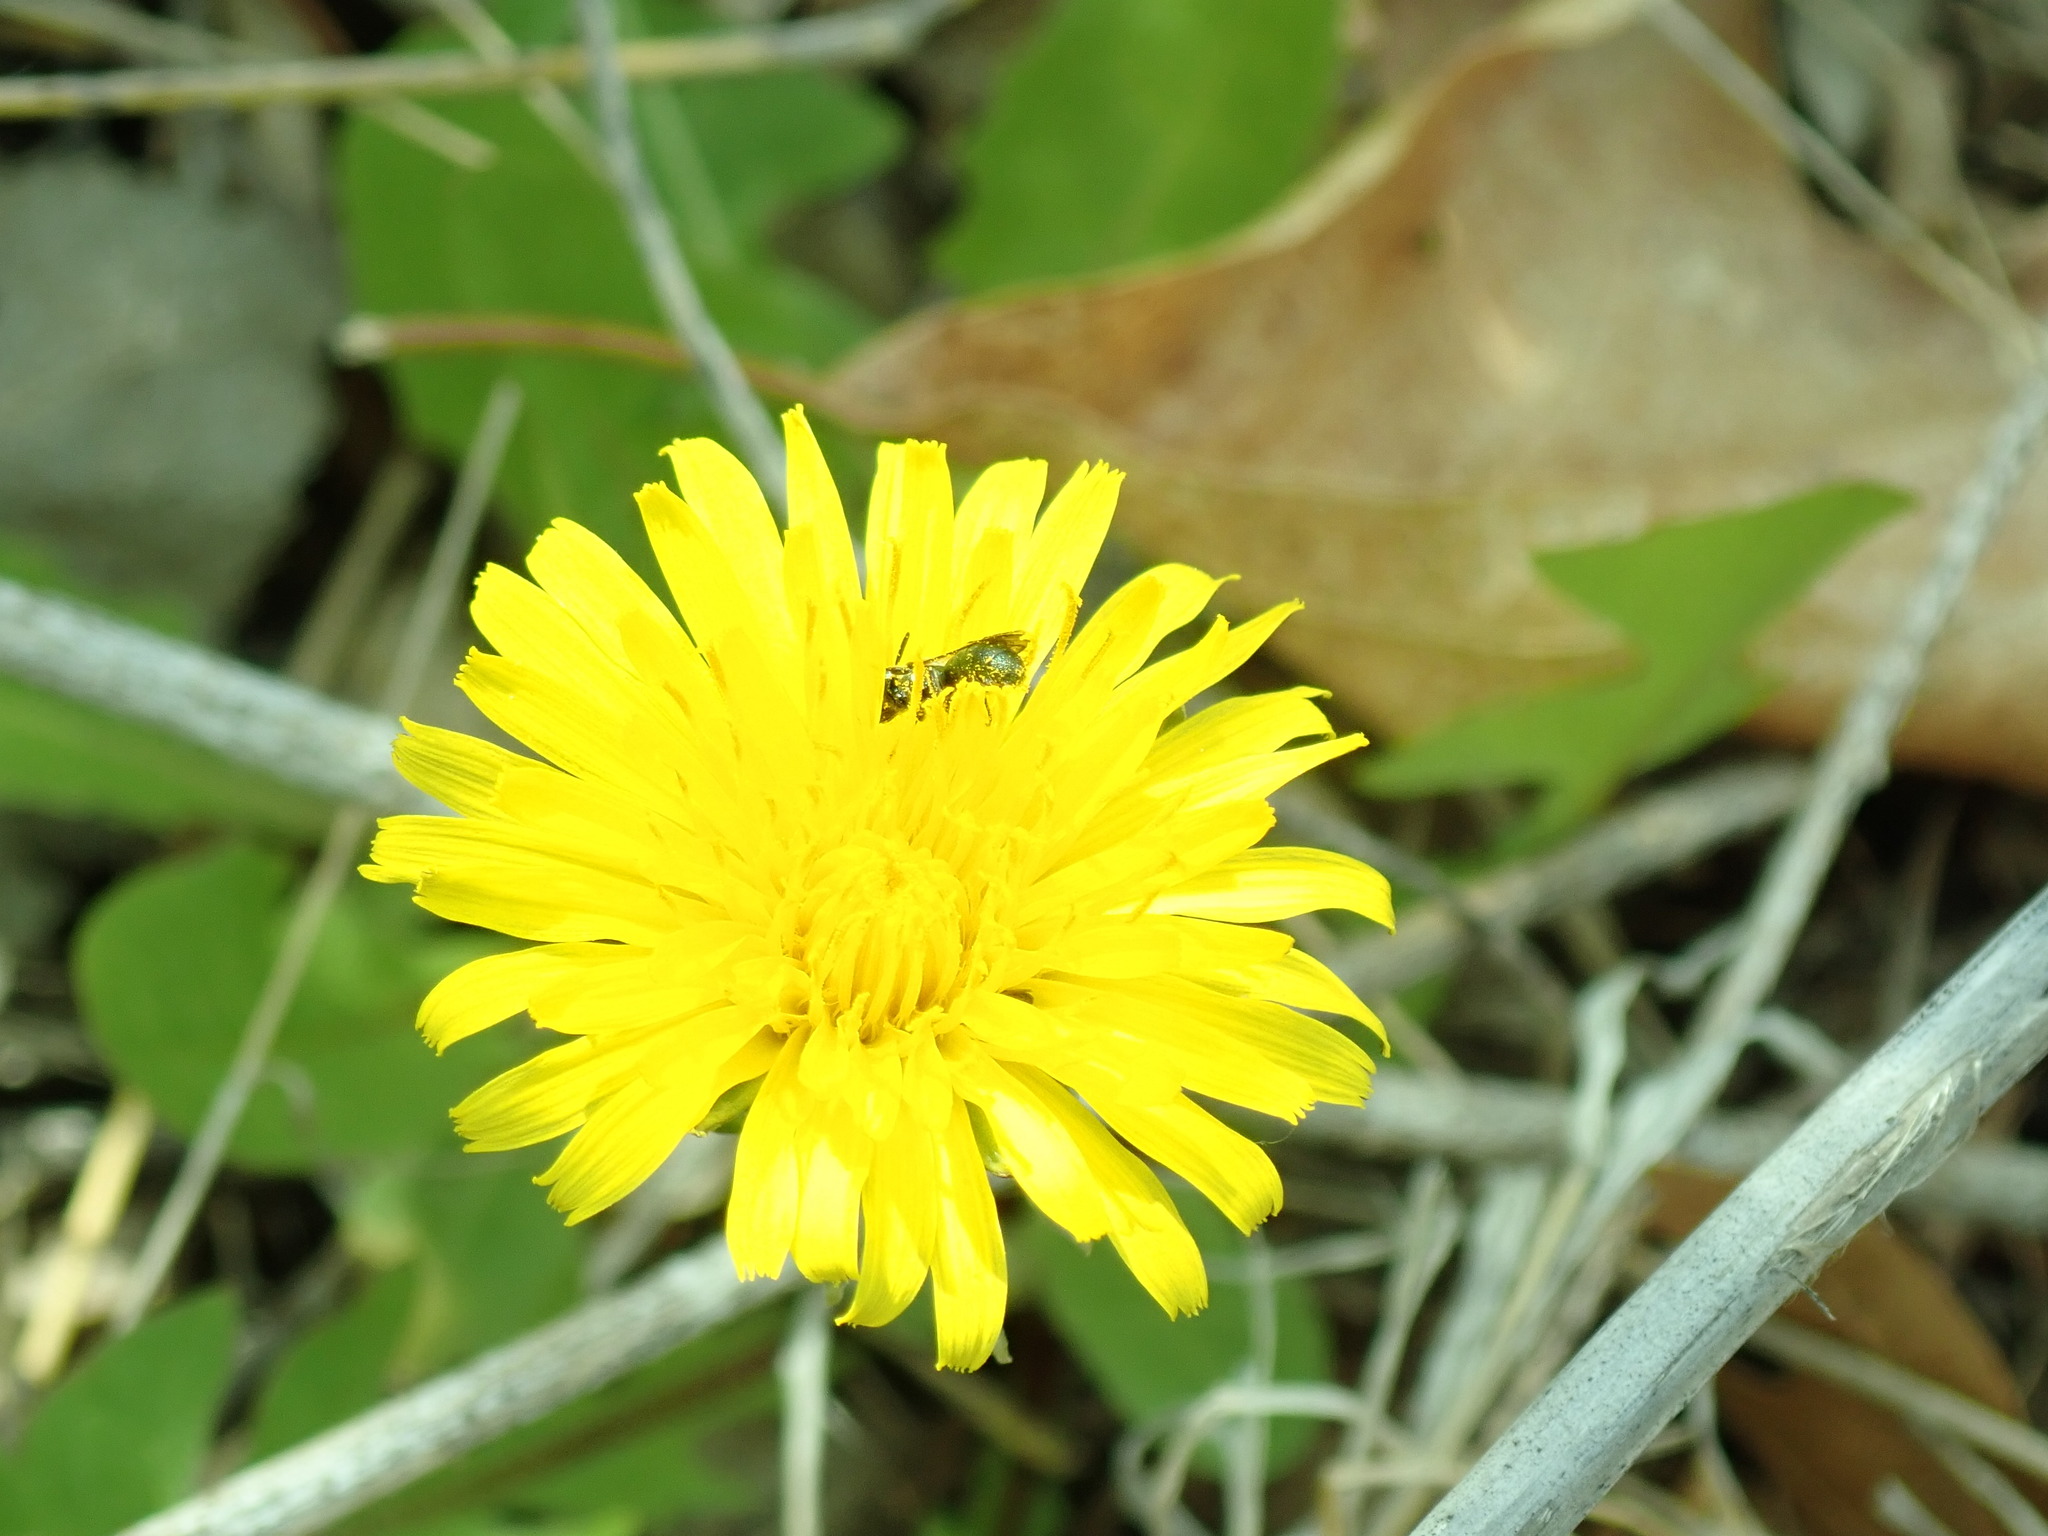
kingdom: Plantae
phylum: Tracheophyta
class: Magnoliopsida
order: Asterales
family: Asteraceae
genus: Taraxacum
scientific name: Taraxacum officinale
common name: Common dandelion
